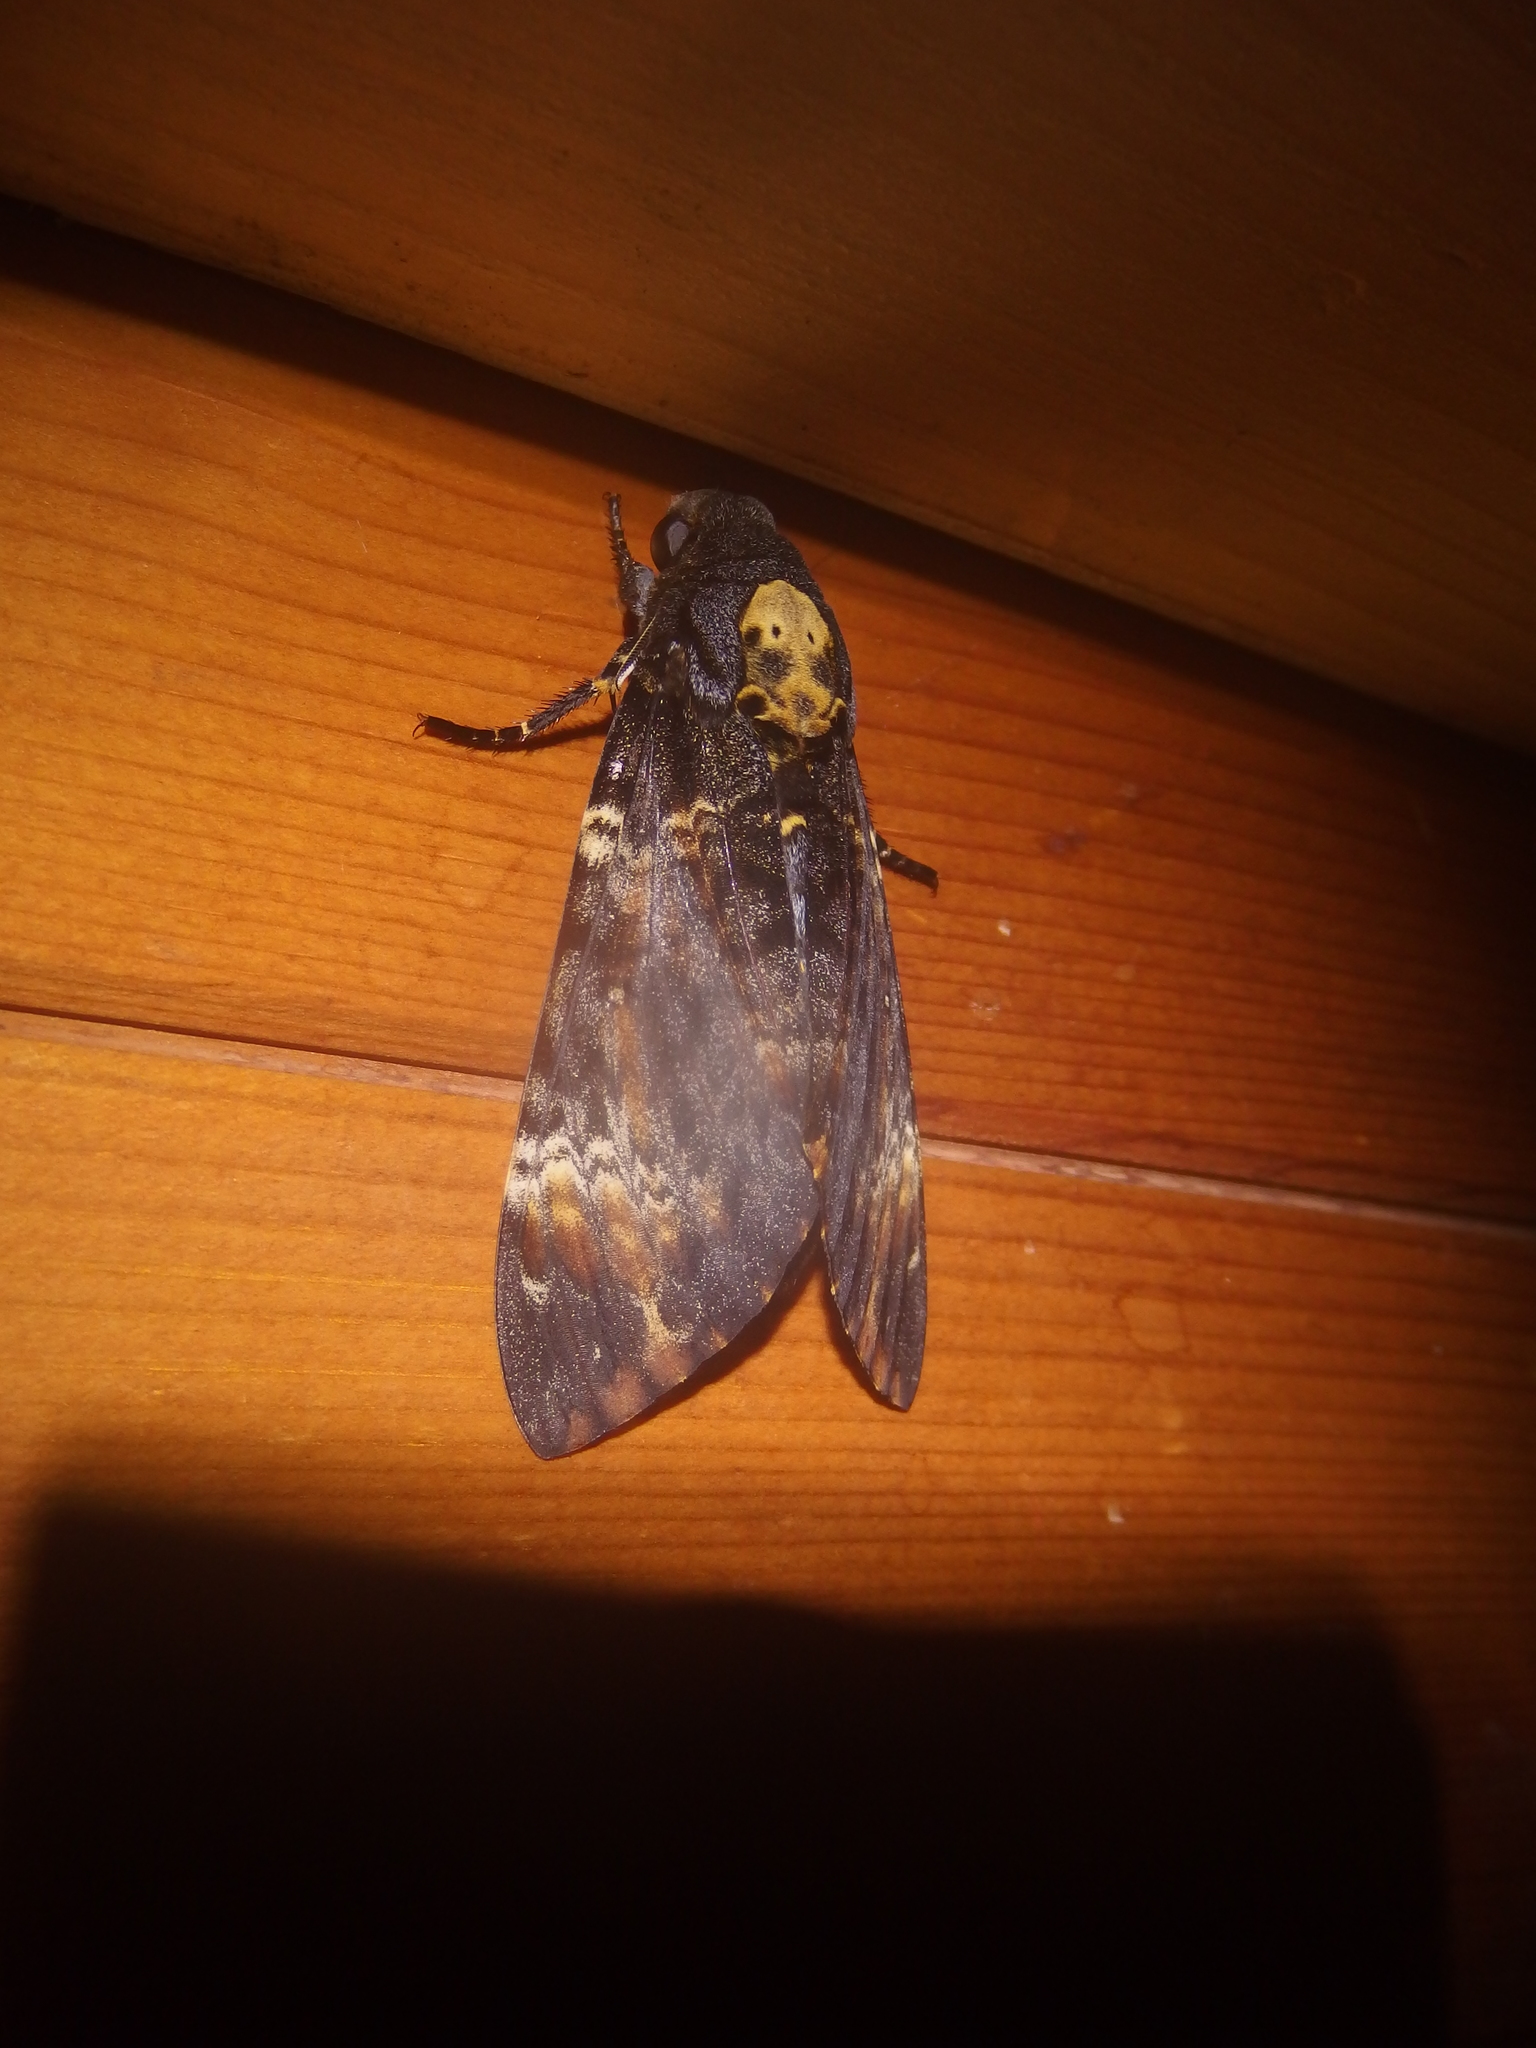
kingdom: Animalia
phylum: Arthropoda
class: Insecta
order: Lepidoptera
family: Sphingidae
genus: Acherontia
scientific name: Acherontia atropos
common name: Death's-head hawk moth
